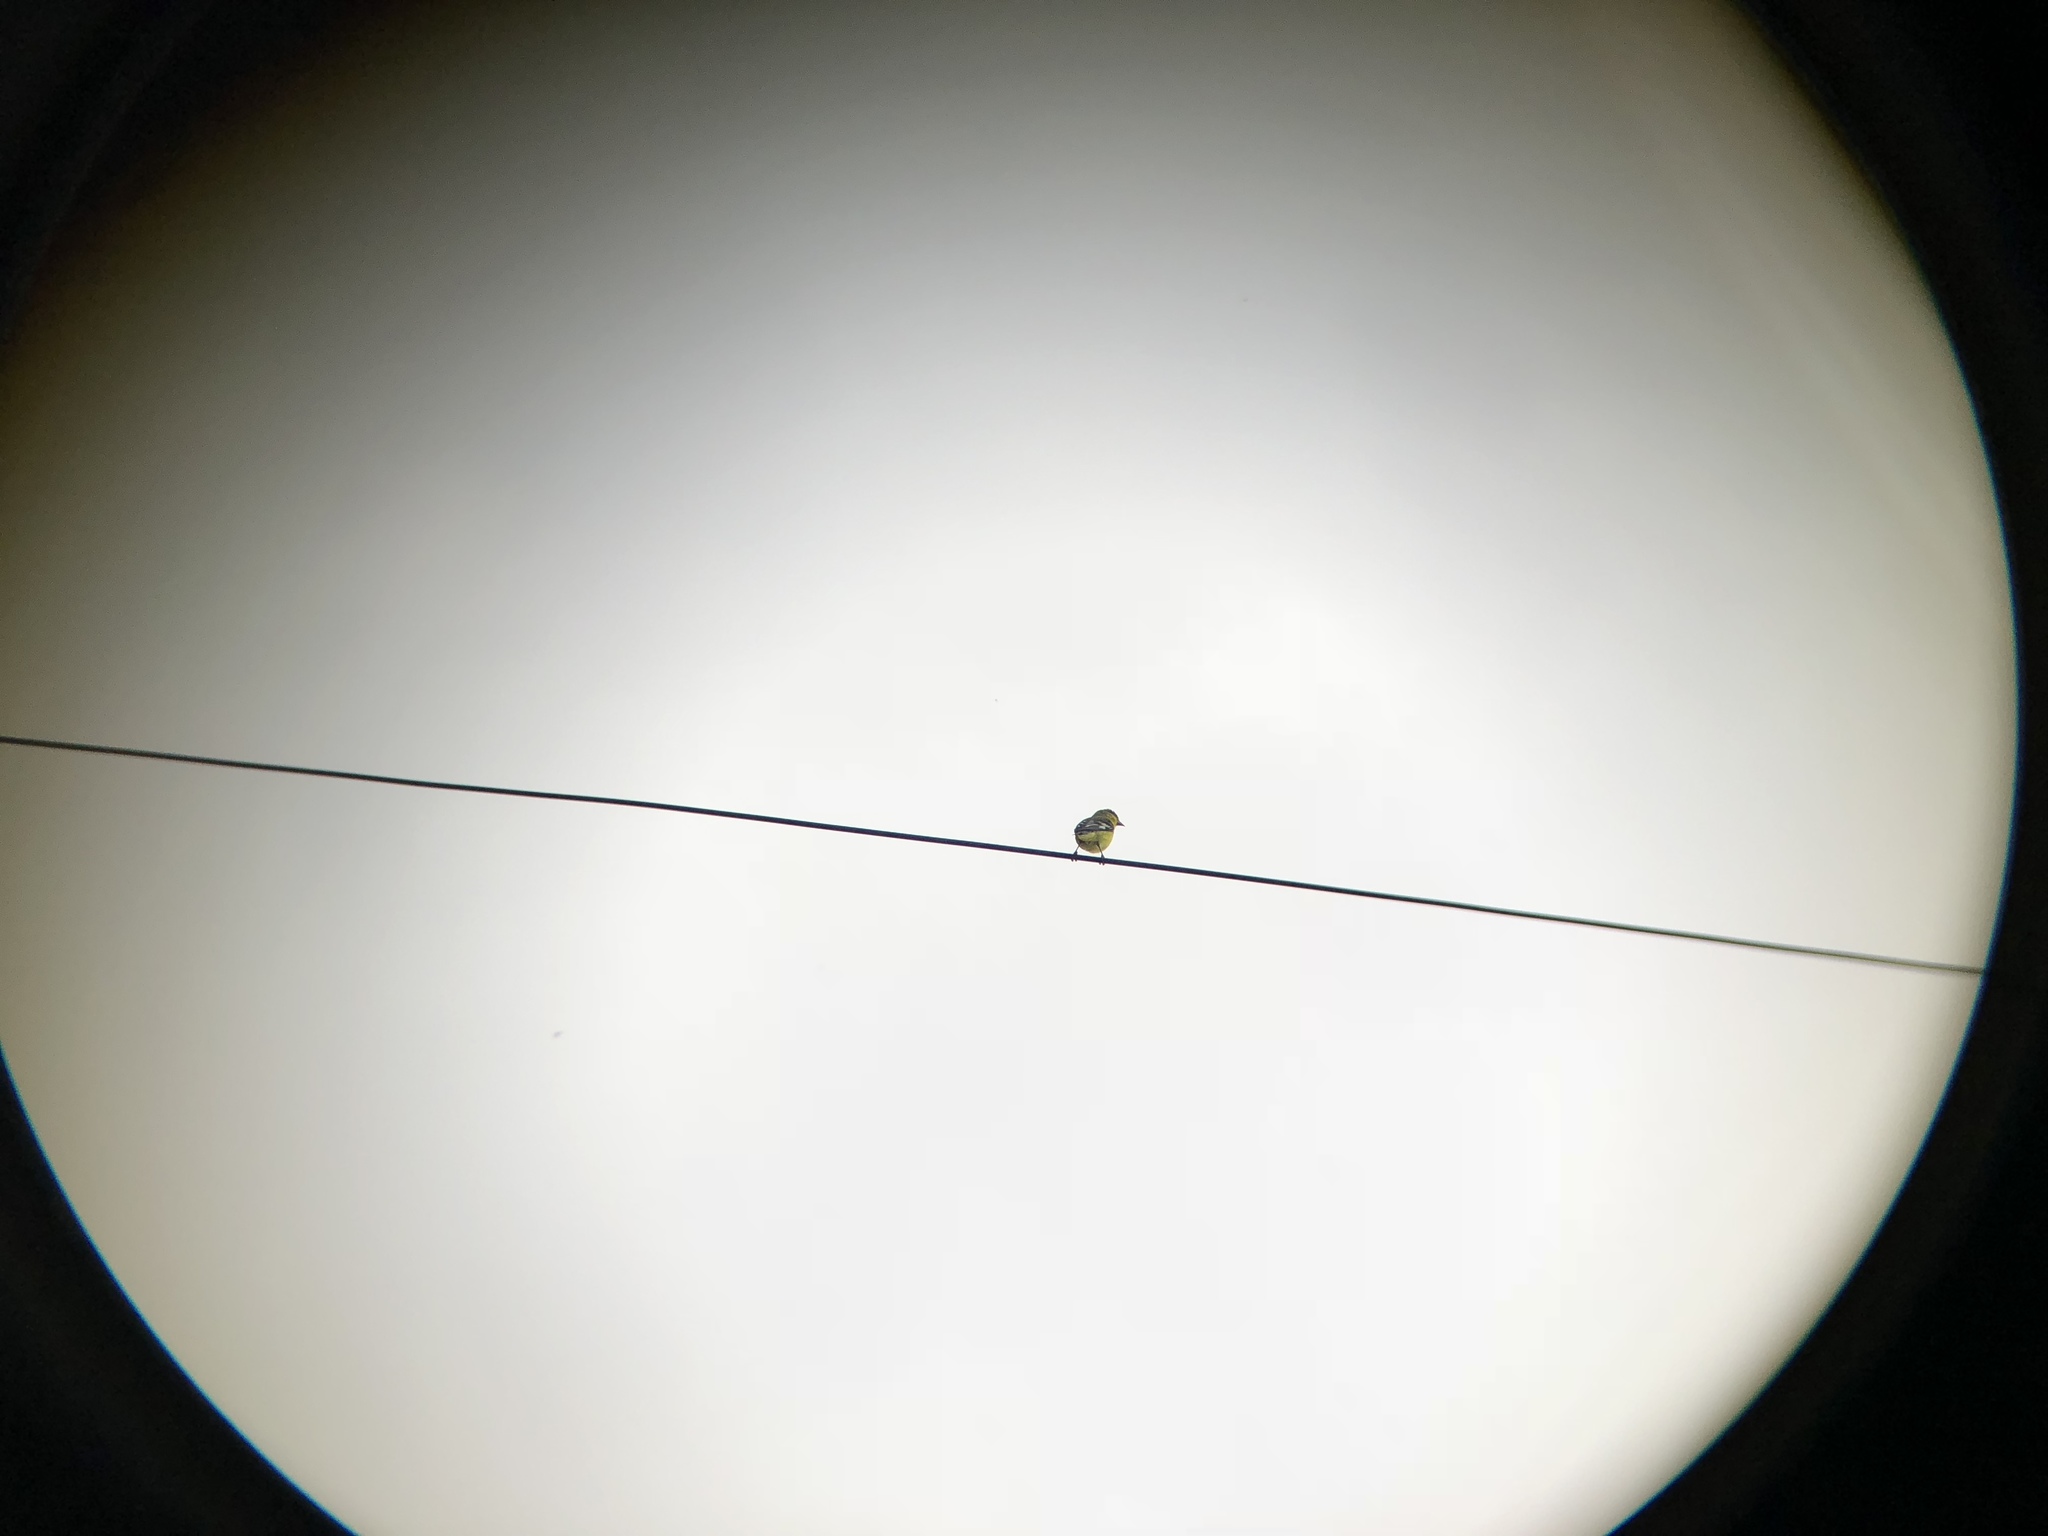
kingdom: Animalia
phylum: Chordata
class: Aves
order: Passeriformes
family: Fringillidae
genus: Spinus
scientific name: Spinus psaltria
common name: Lesser goldfinch
